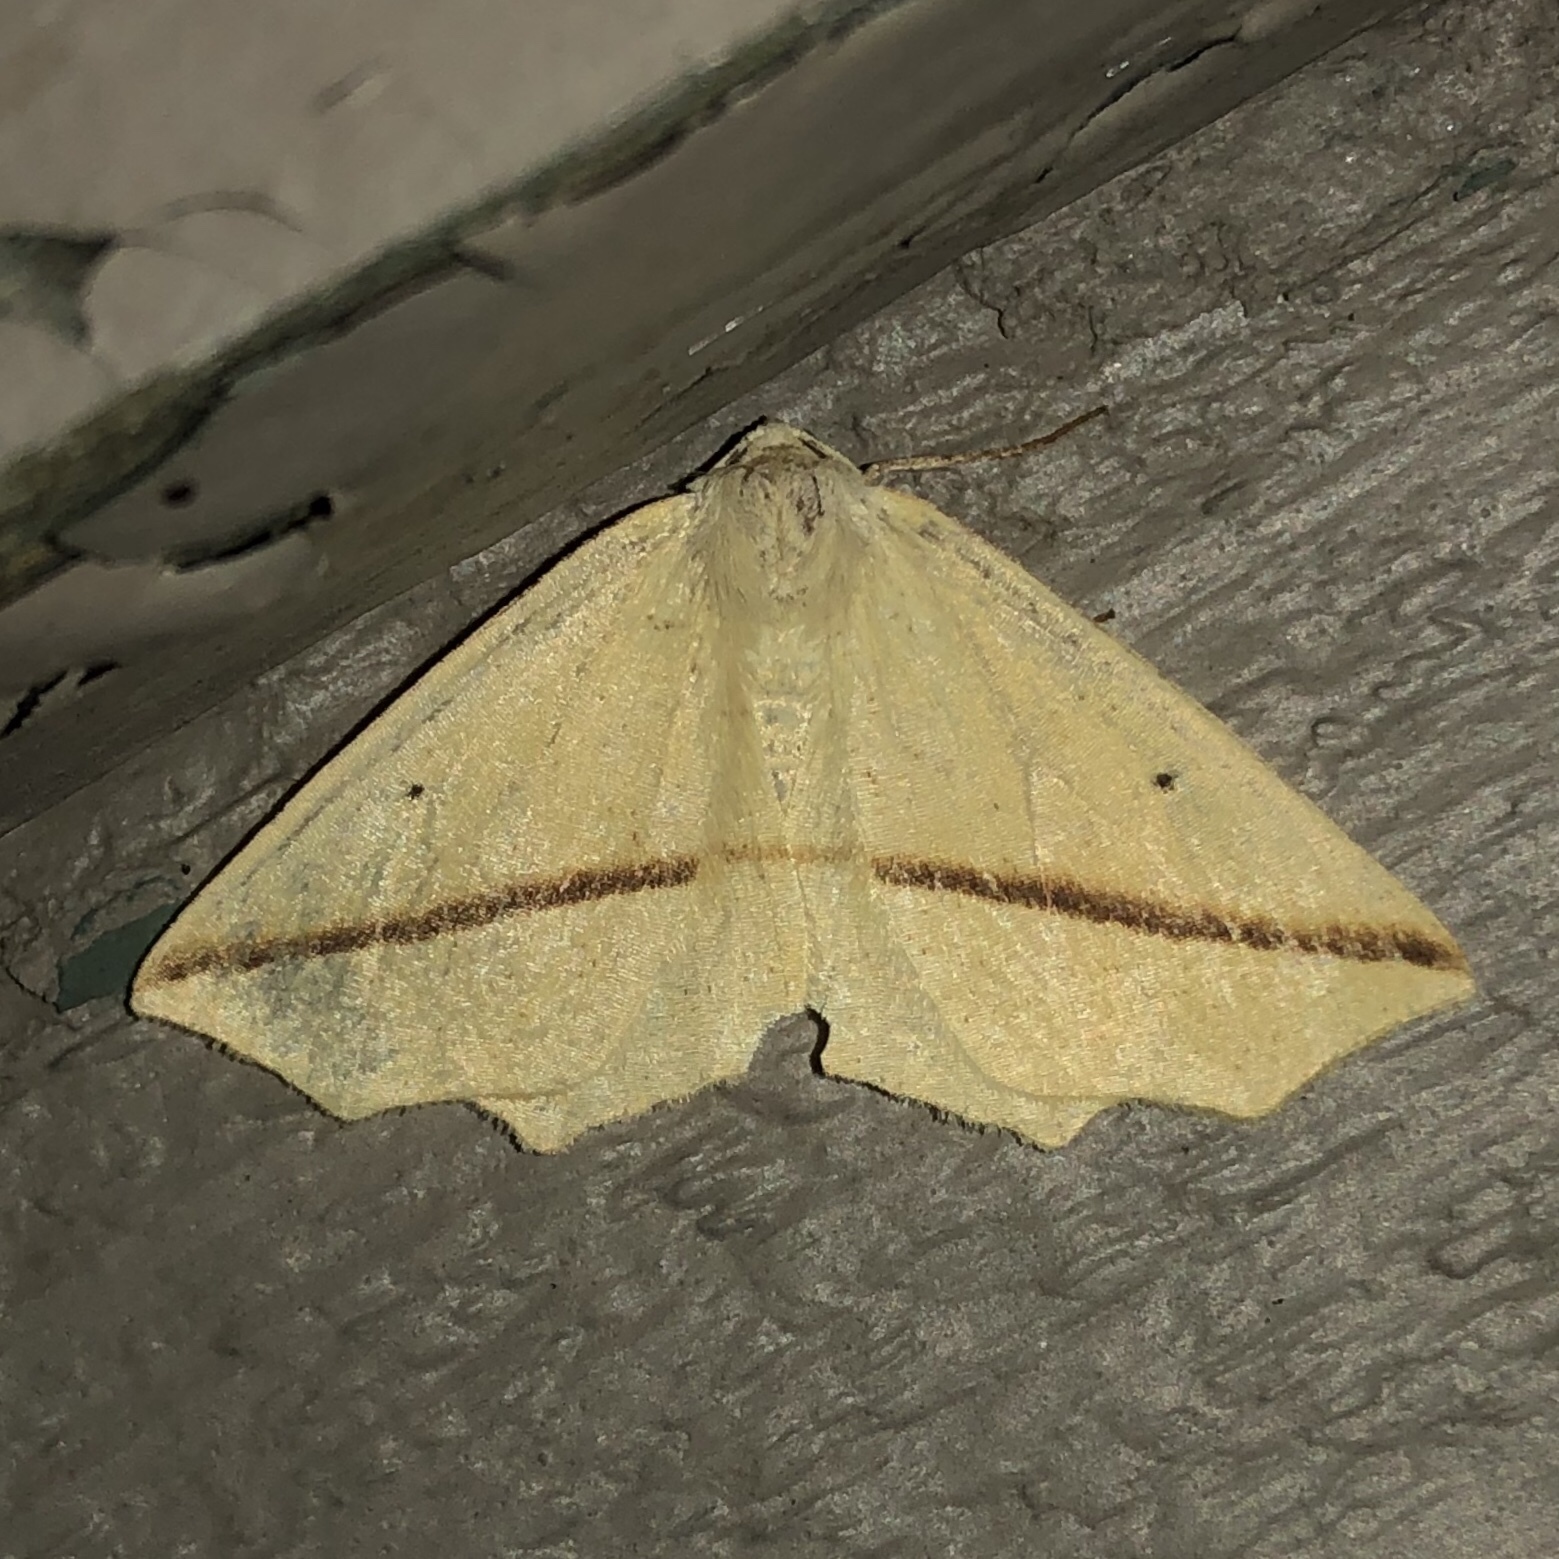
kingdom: Animalia
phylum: Arthropoda
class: Insecta
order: Lepidoptera
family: Geometridae
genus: Tetracis
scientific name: Tetracis crocallata
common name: Yellow slant-line
